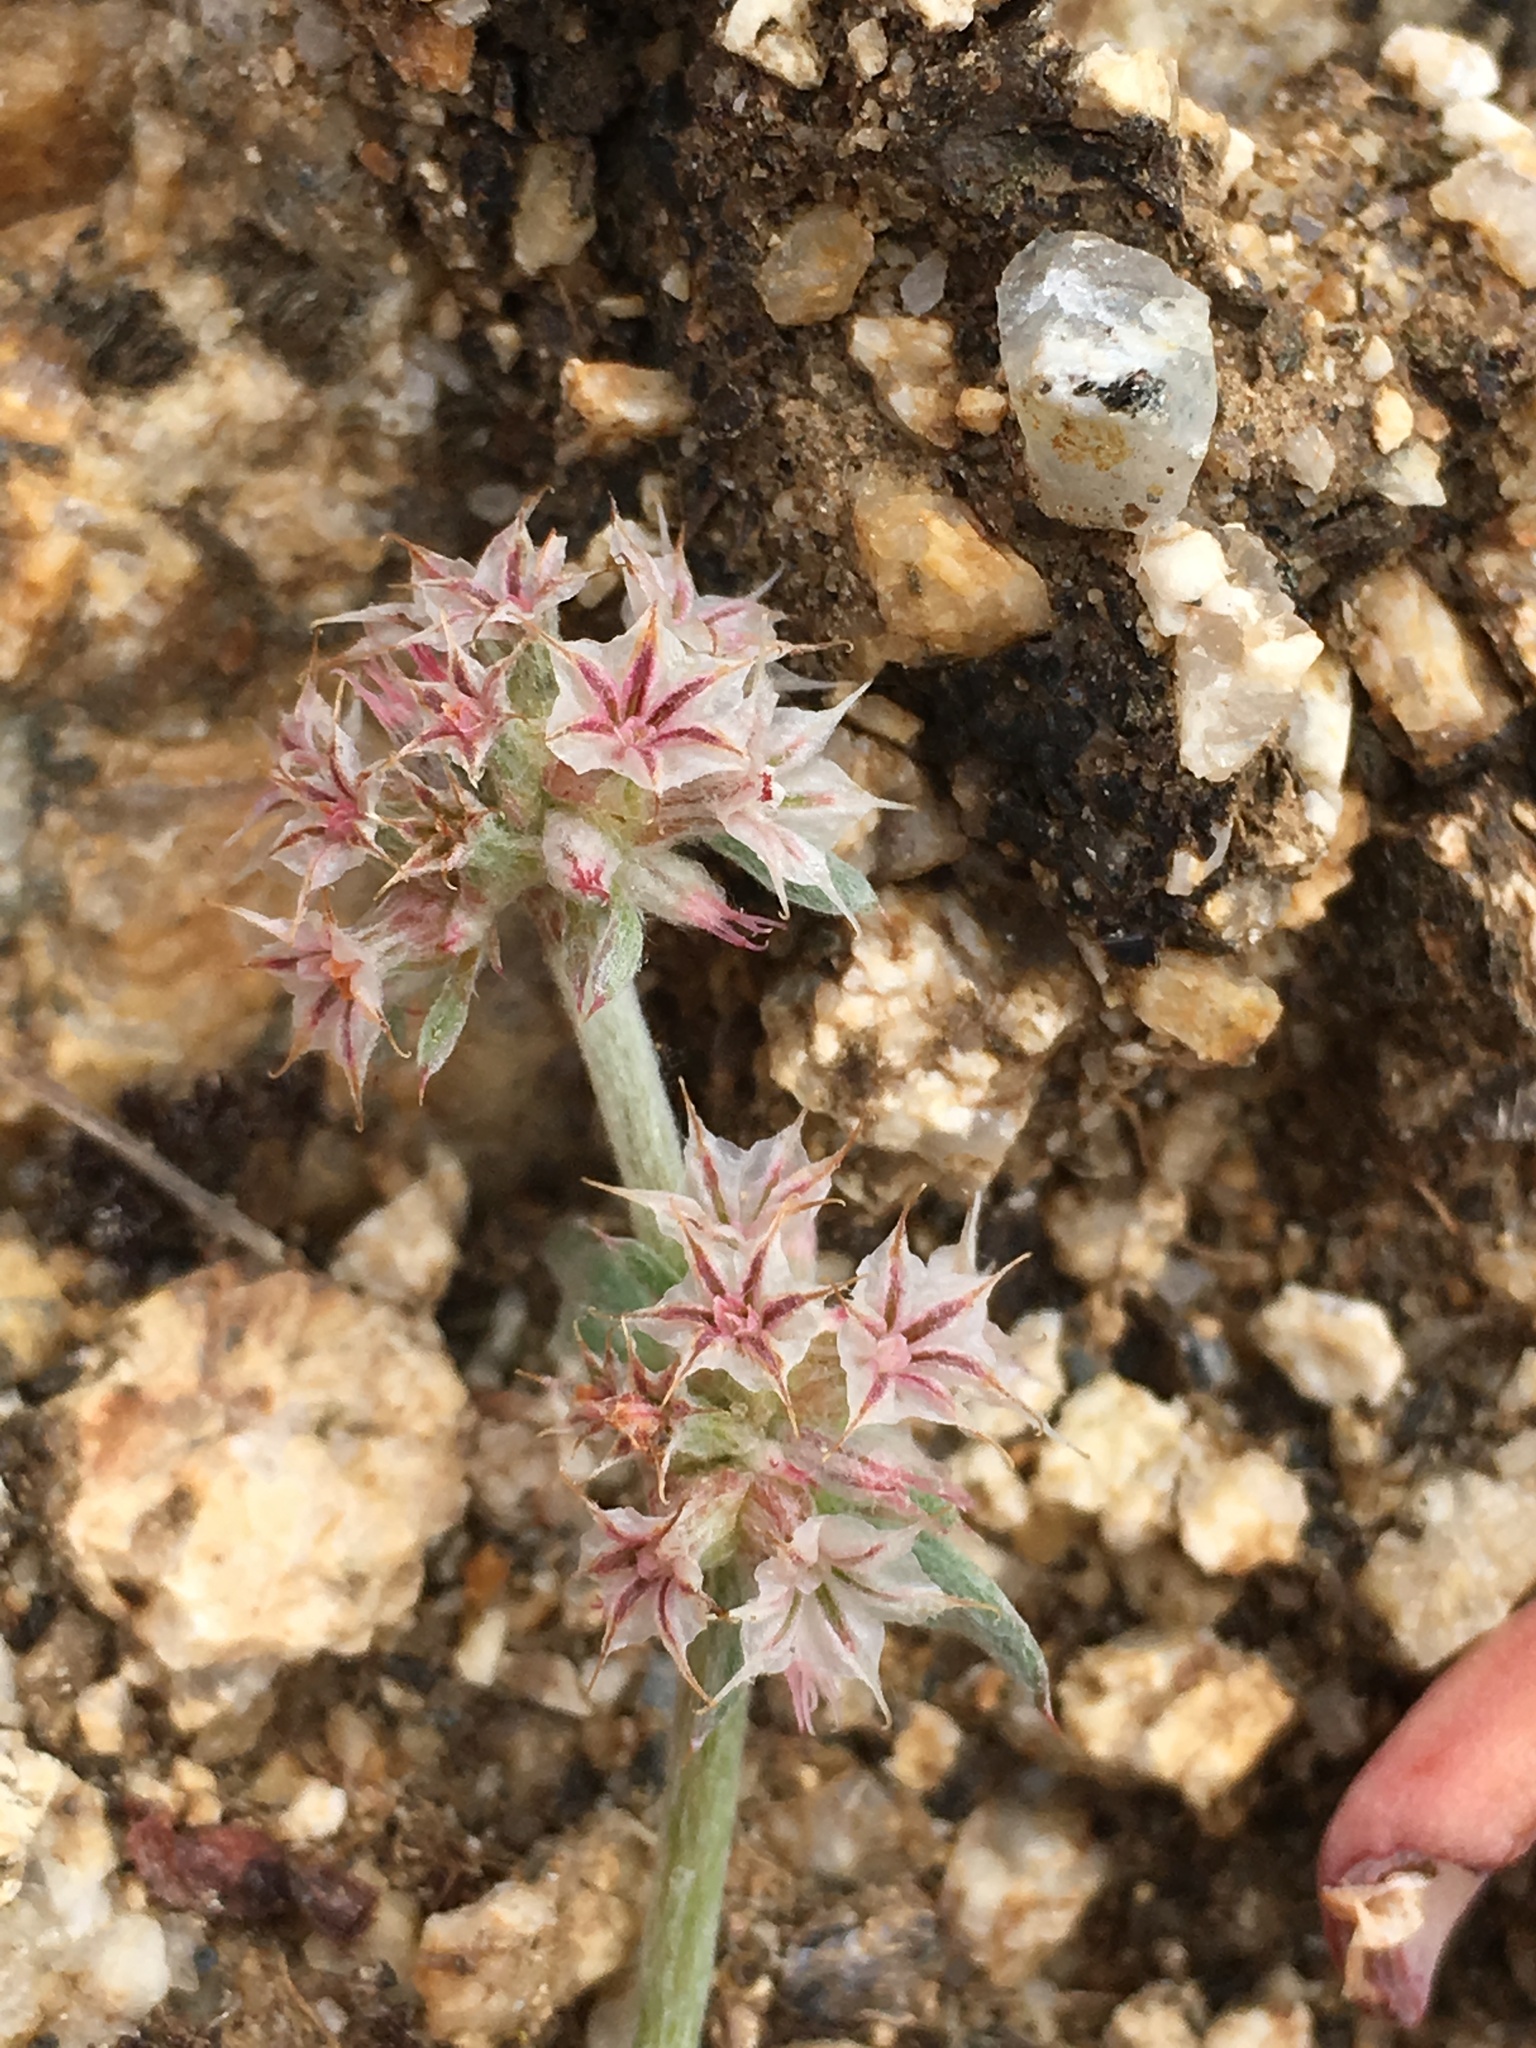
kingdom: Plantae
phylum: Tracheophyta
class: Magnoliopsida
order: Caryophyllales
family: Polygonaceae
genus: Chorizanthe
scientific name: Chorizanthe membranacea
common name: Pink spineflower
